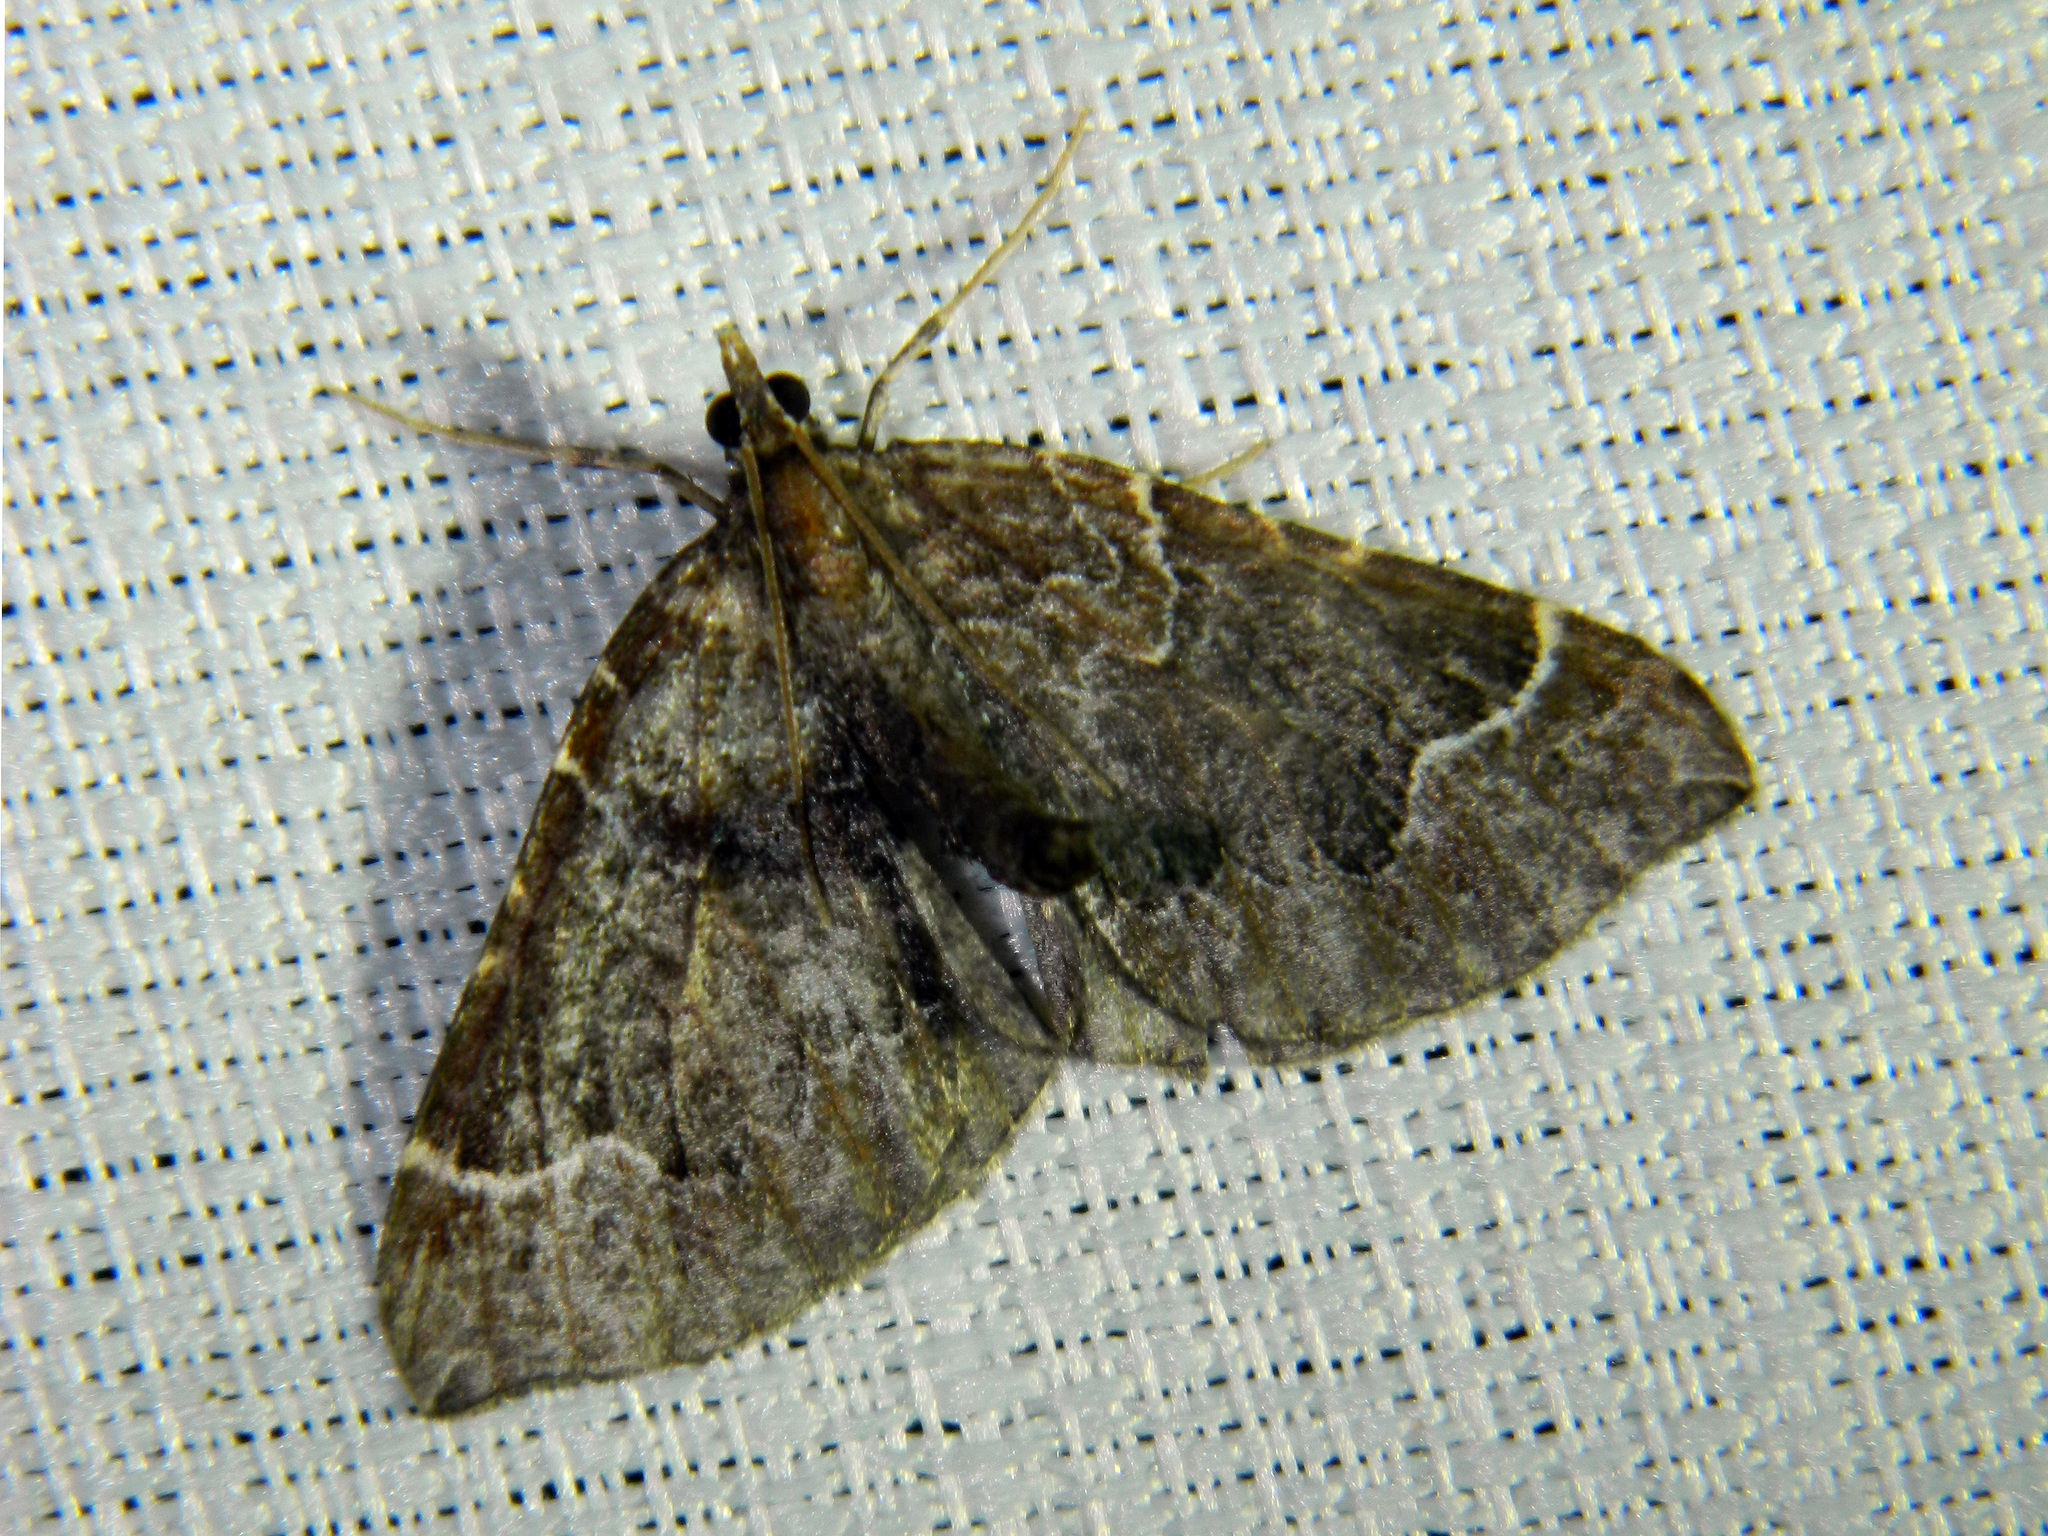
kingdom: Animalia
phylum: Arthropoda
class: Insecta
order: Lepidoptera
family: Geometridae
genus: Eulithis
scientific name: Eulithis flavibrunneata
